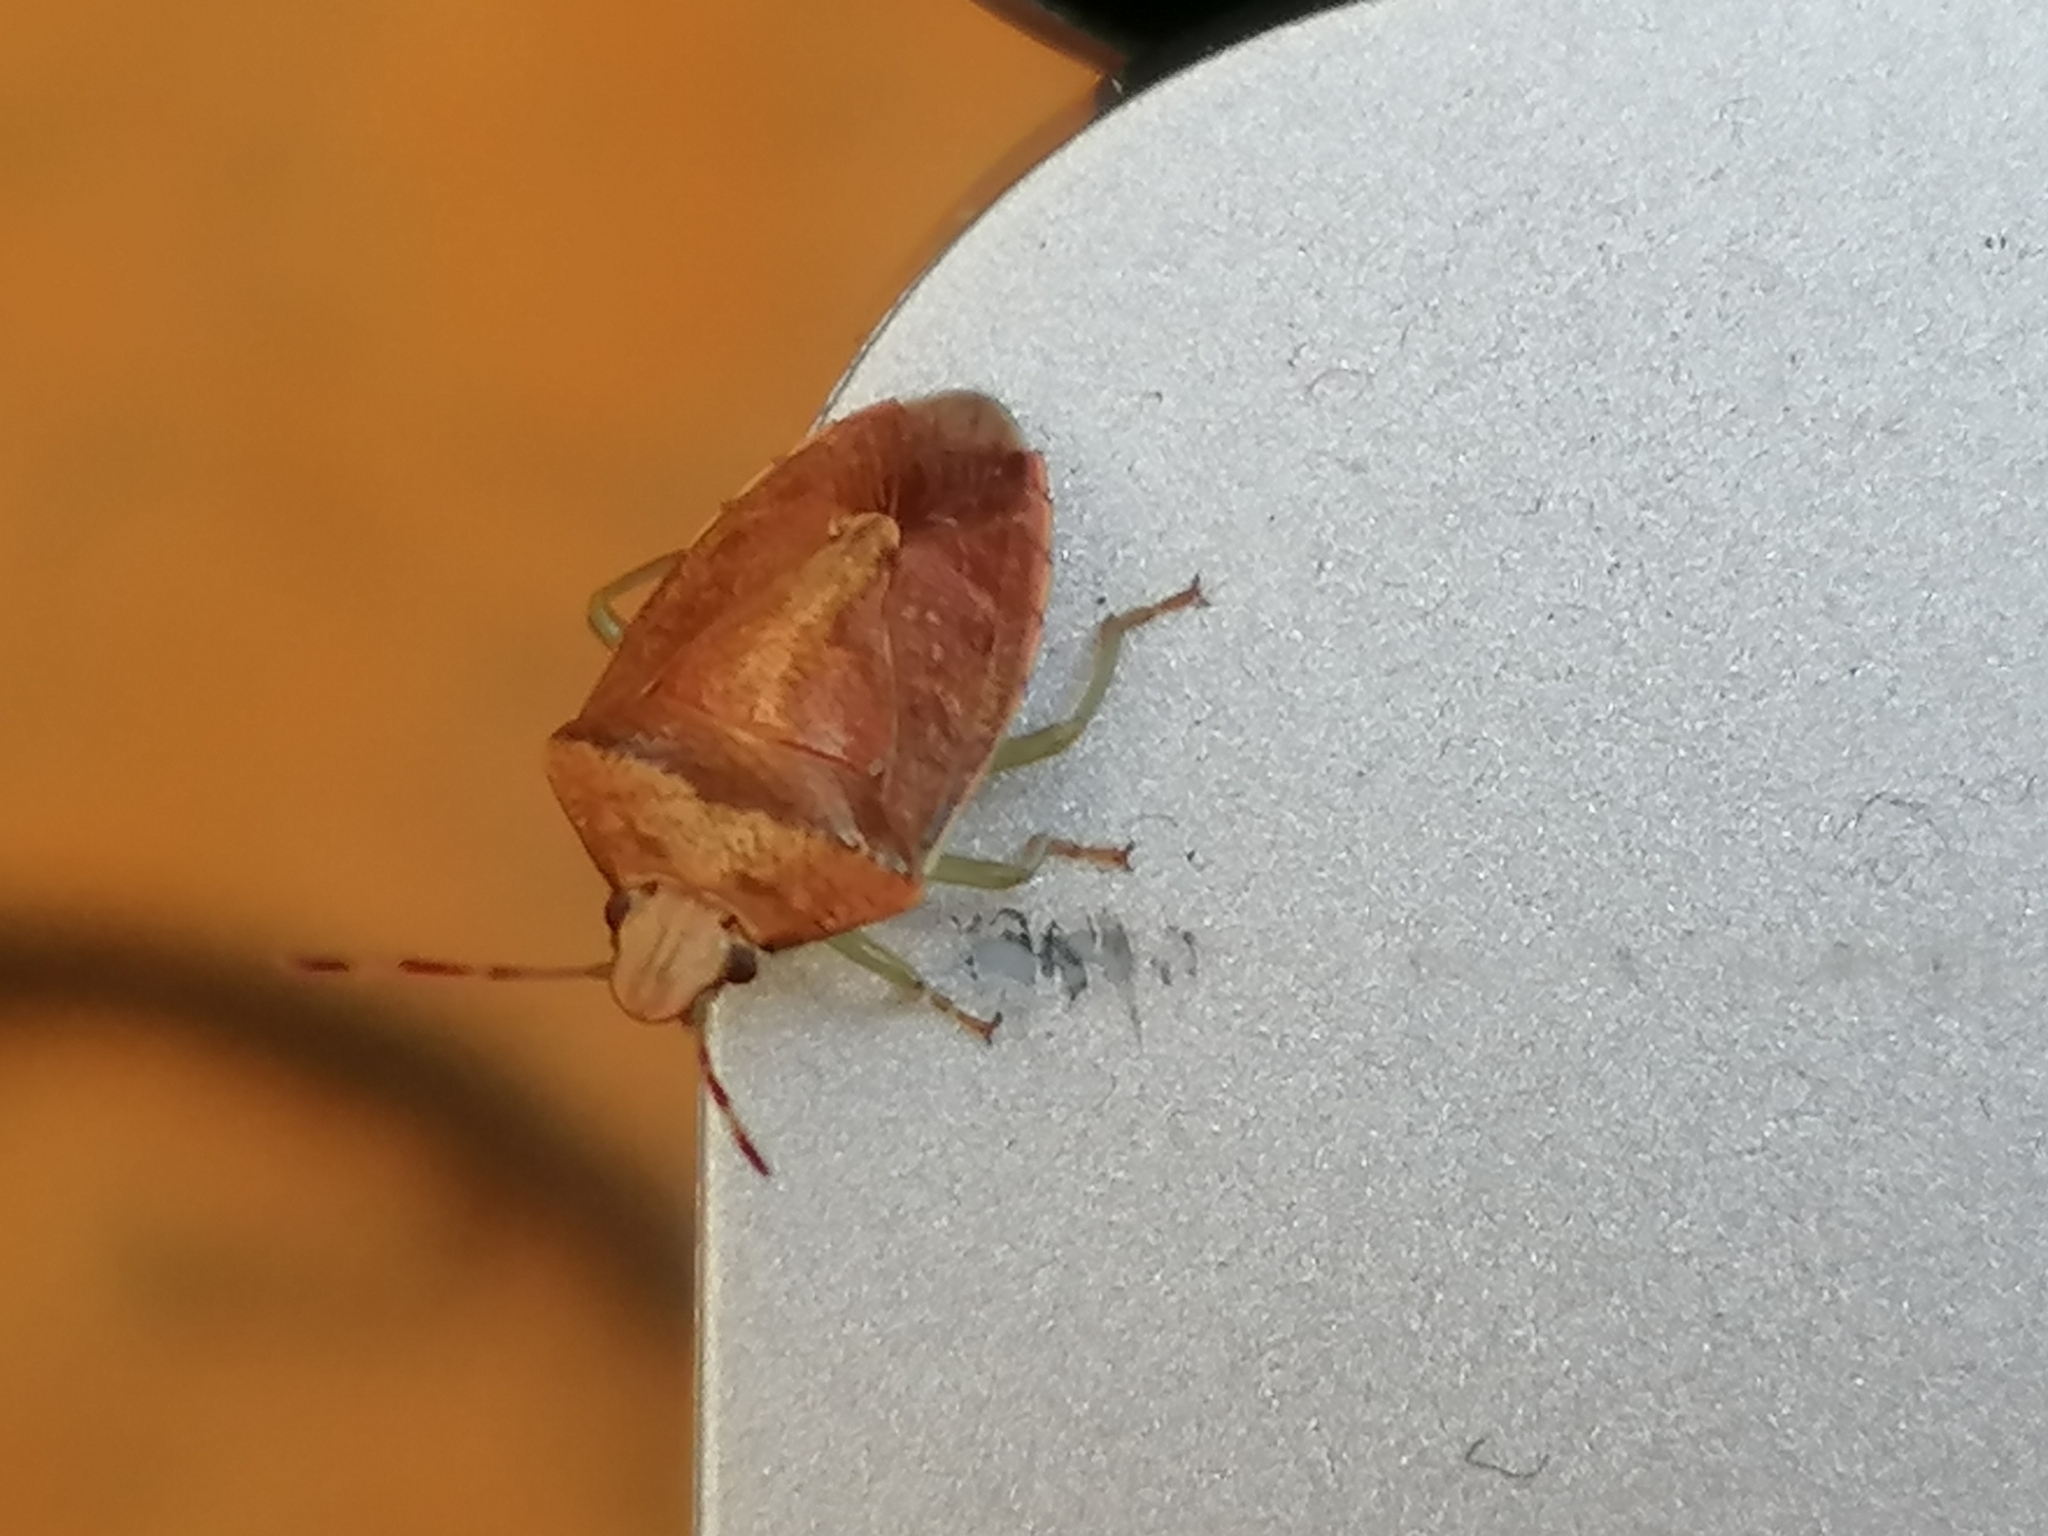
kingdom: Animalia
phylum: Arthropoda
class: Insecta
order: Hemiptera
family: Pentatomidae
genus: Banasa
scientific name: Banasa calva
